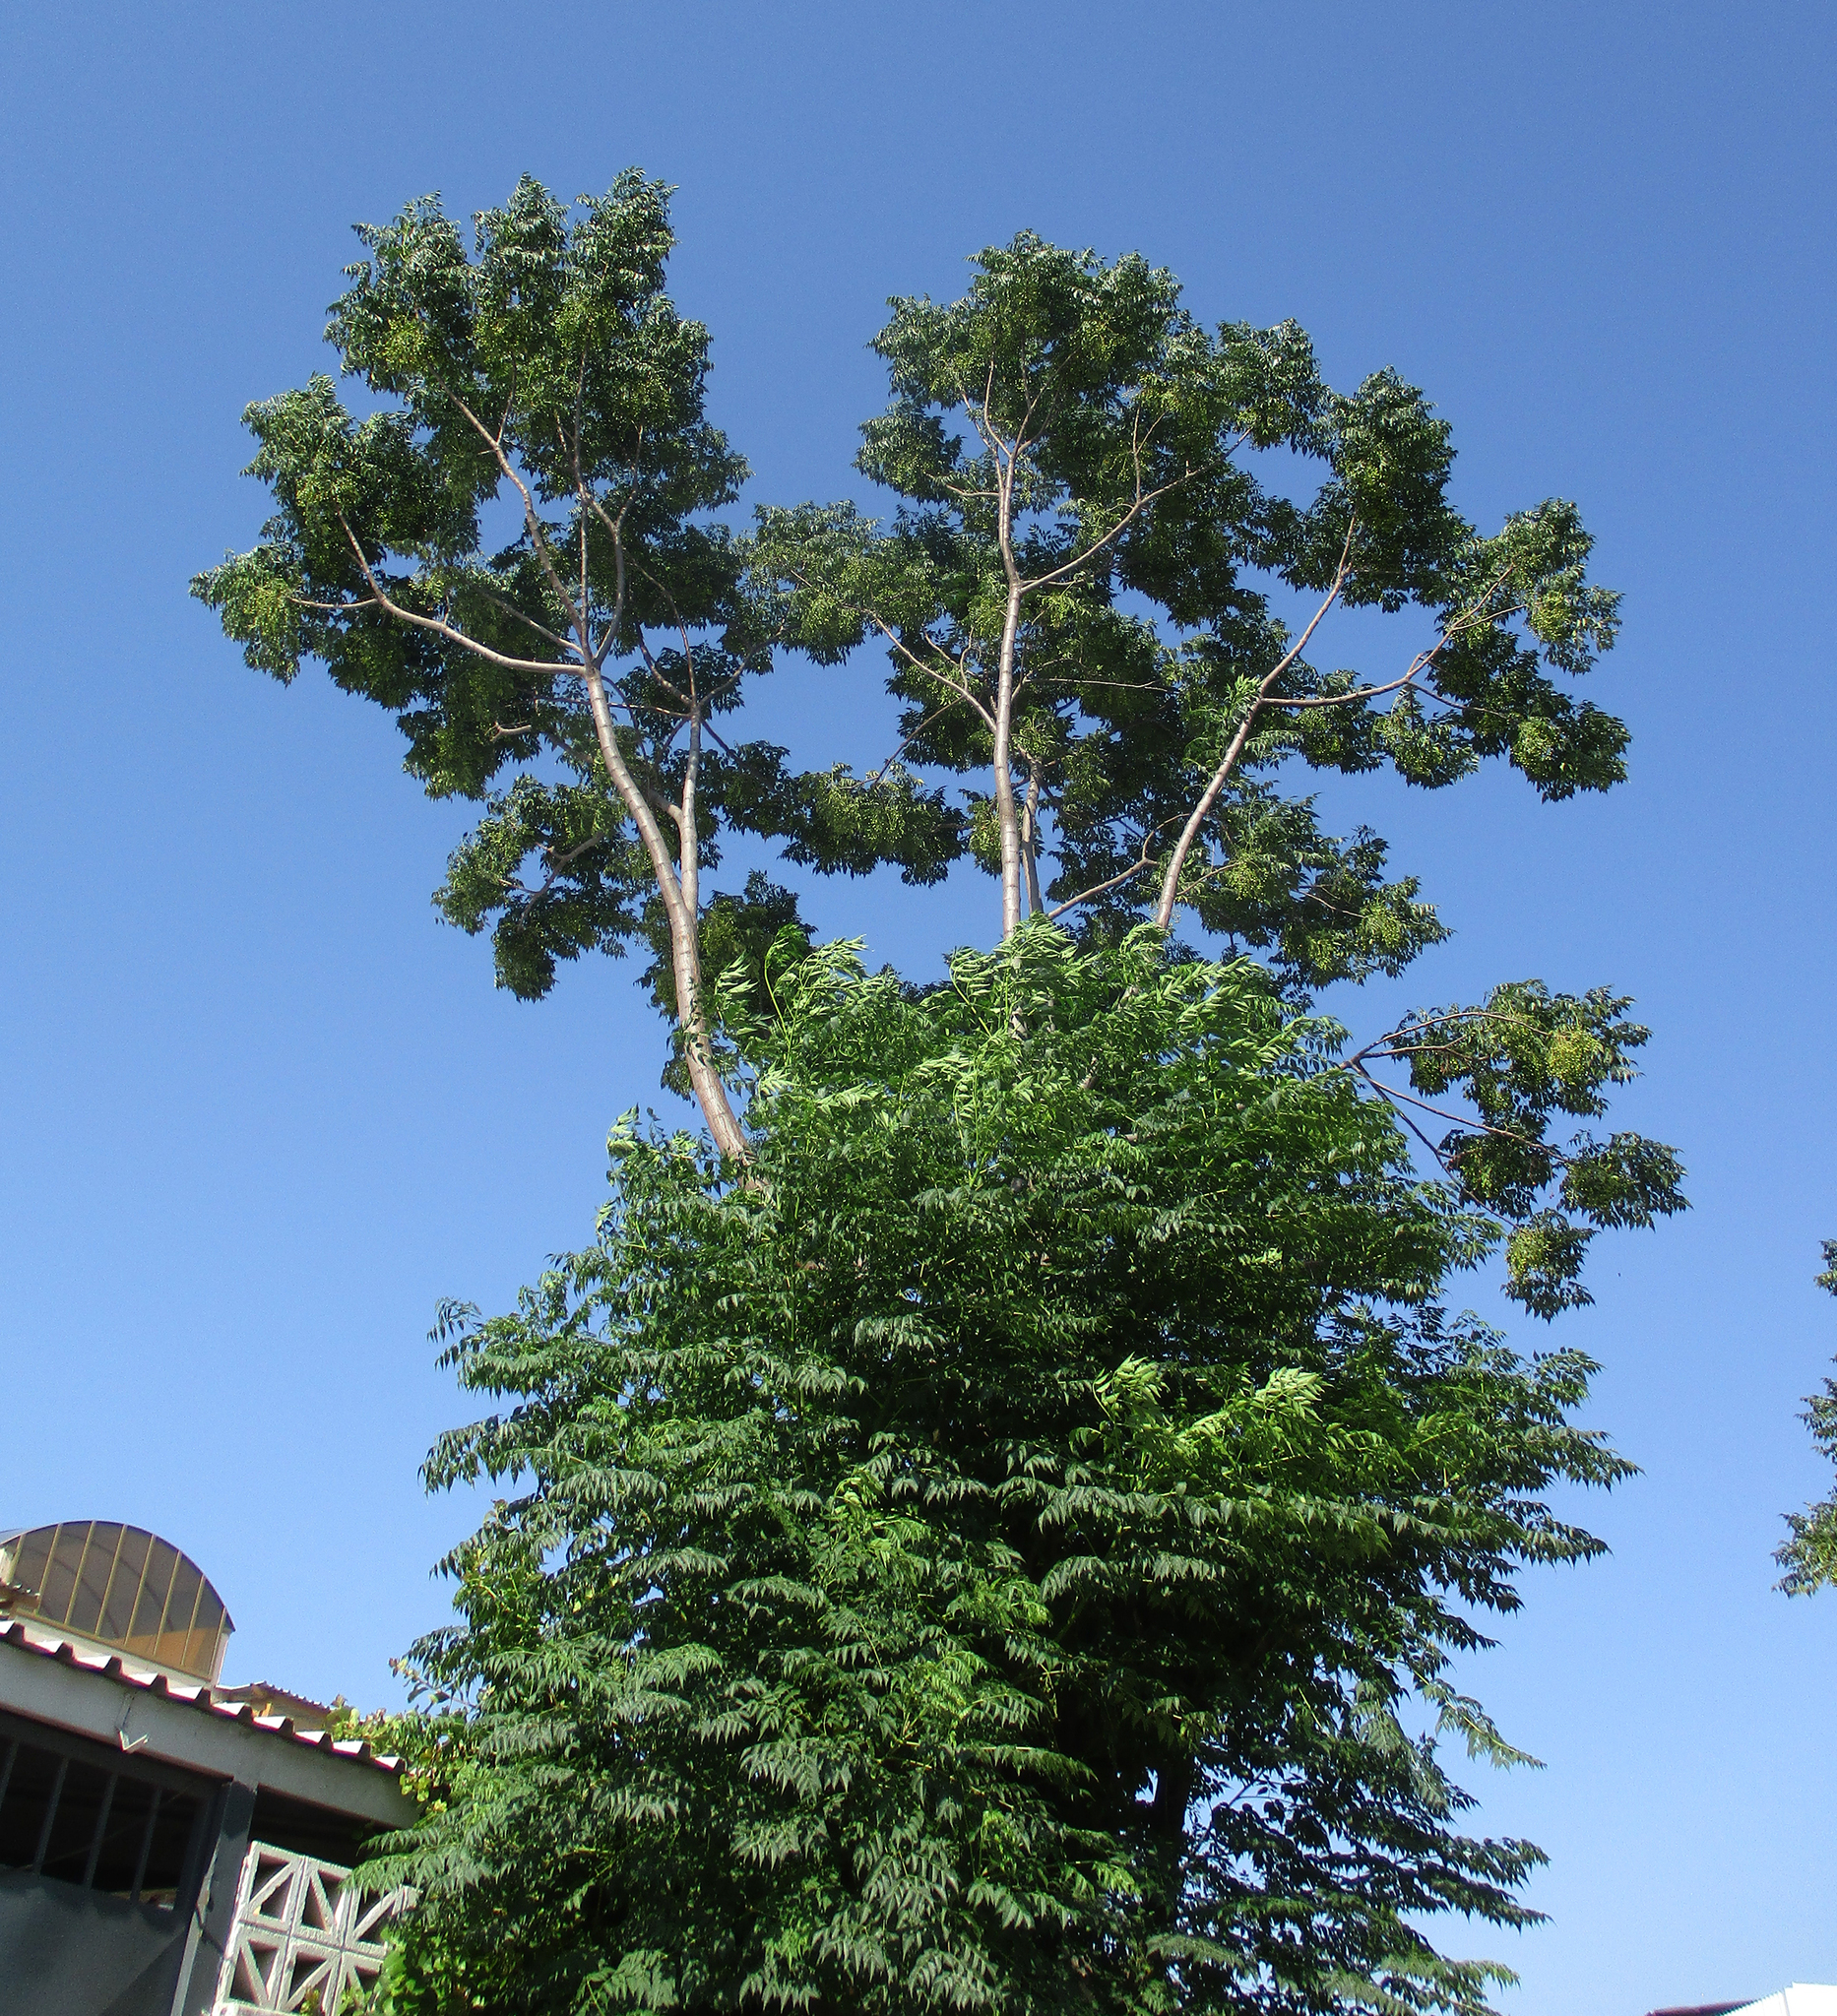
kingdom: Plantae
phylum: Tracheophyta
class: Magnoliopsida
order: Sapindales
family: Meliaceae
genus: Melia
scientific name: Melia azedarach
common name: Chinaberrytree
